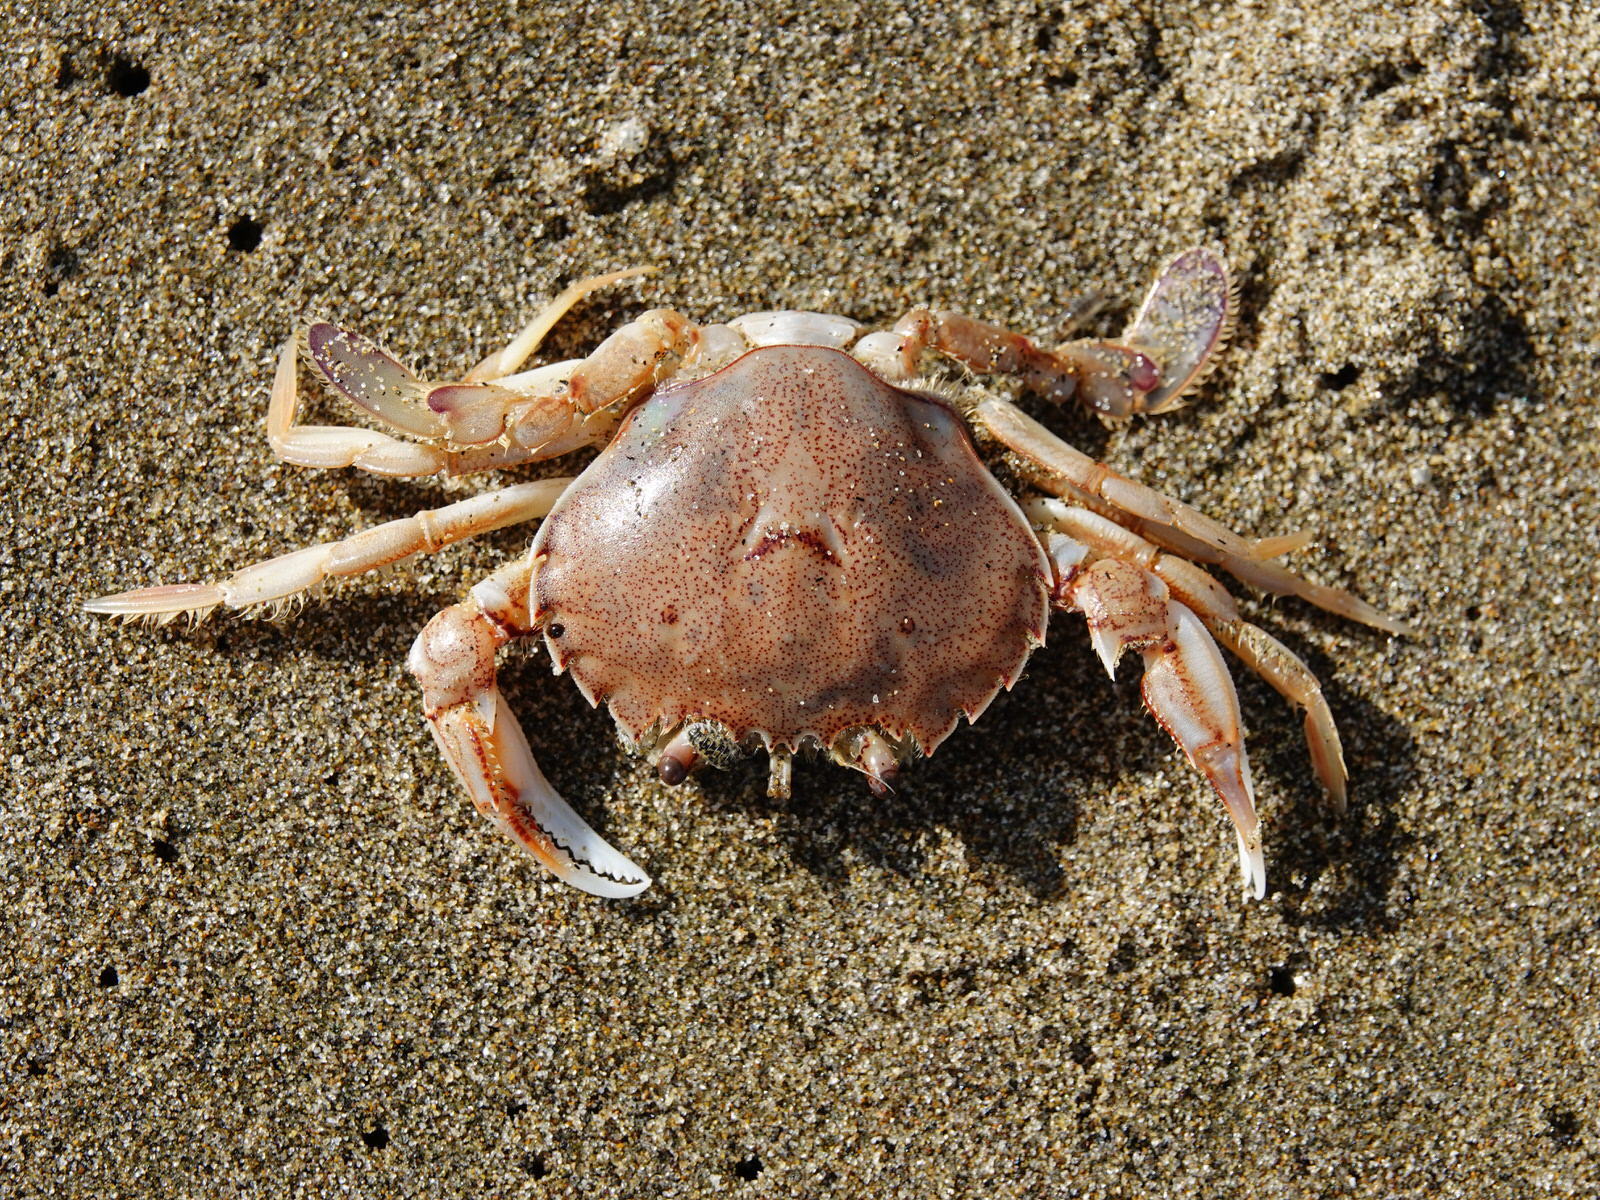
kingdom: Animalia
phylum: Arthropoda
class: Malacostraca
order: Decapoda
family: Ovalipidae
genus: Ovalipes
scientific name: Ovalipes catharus
